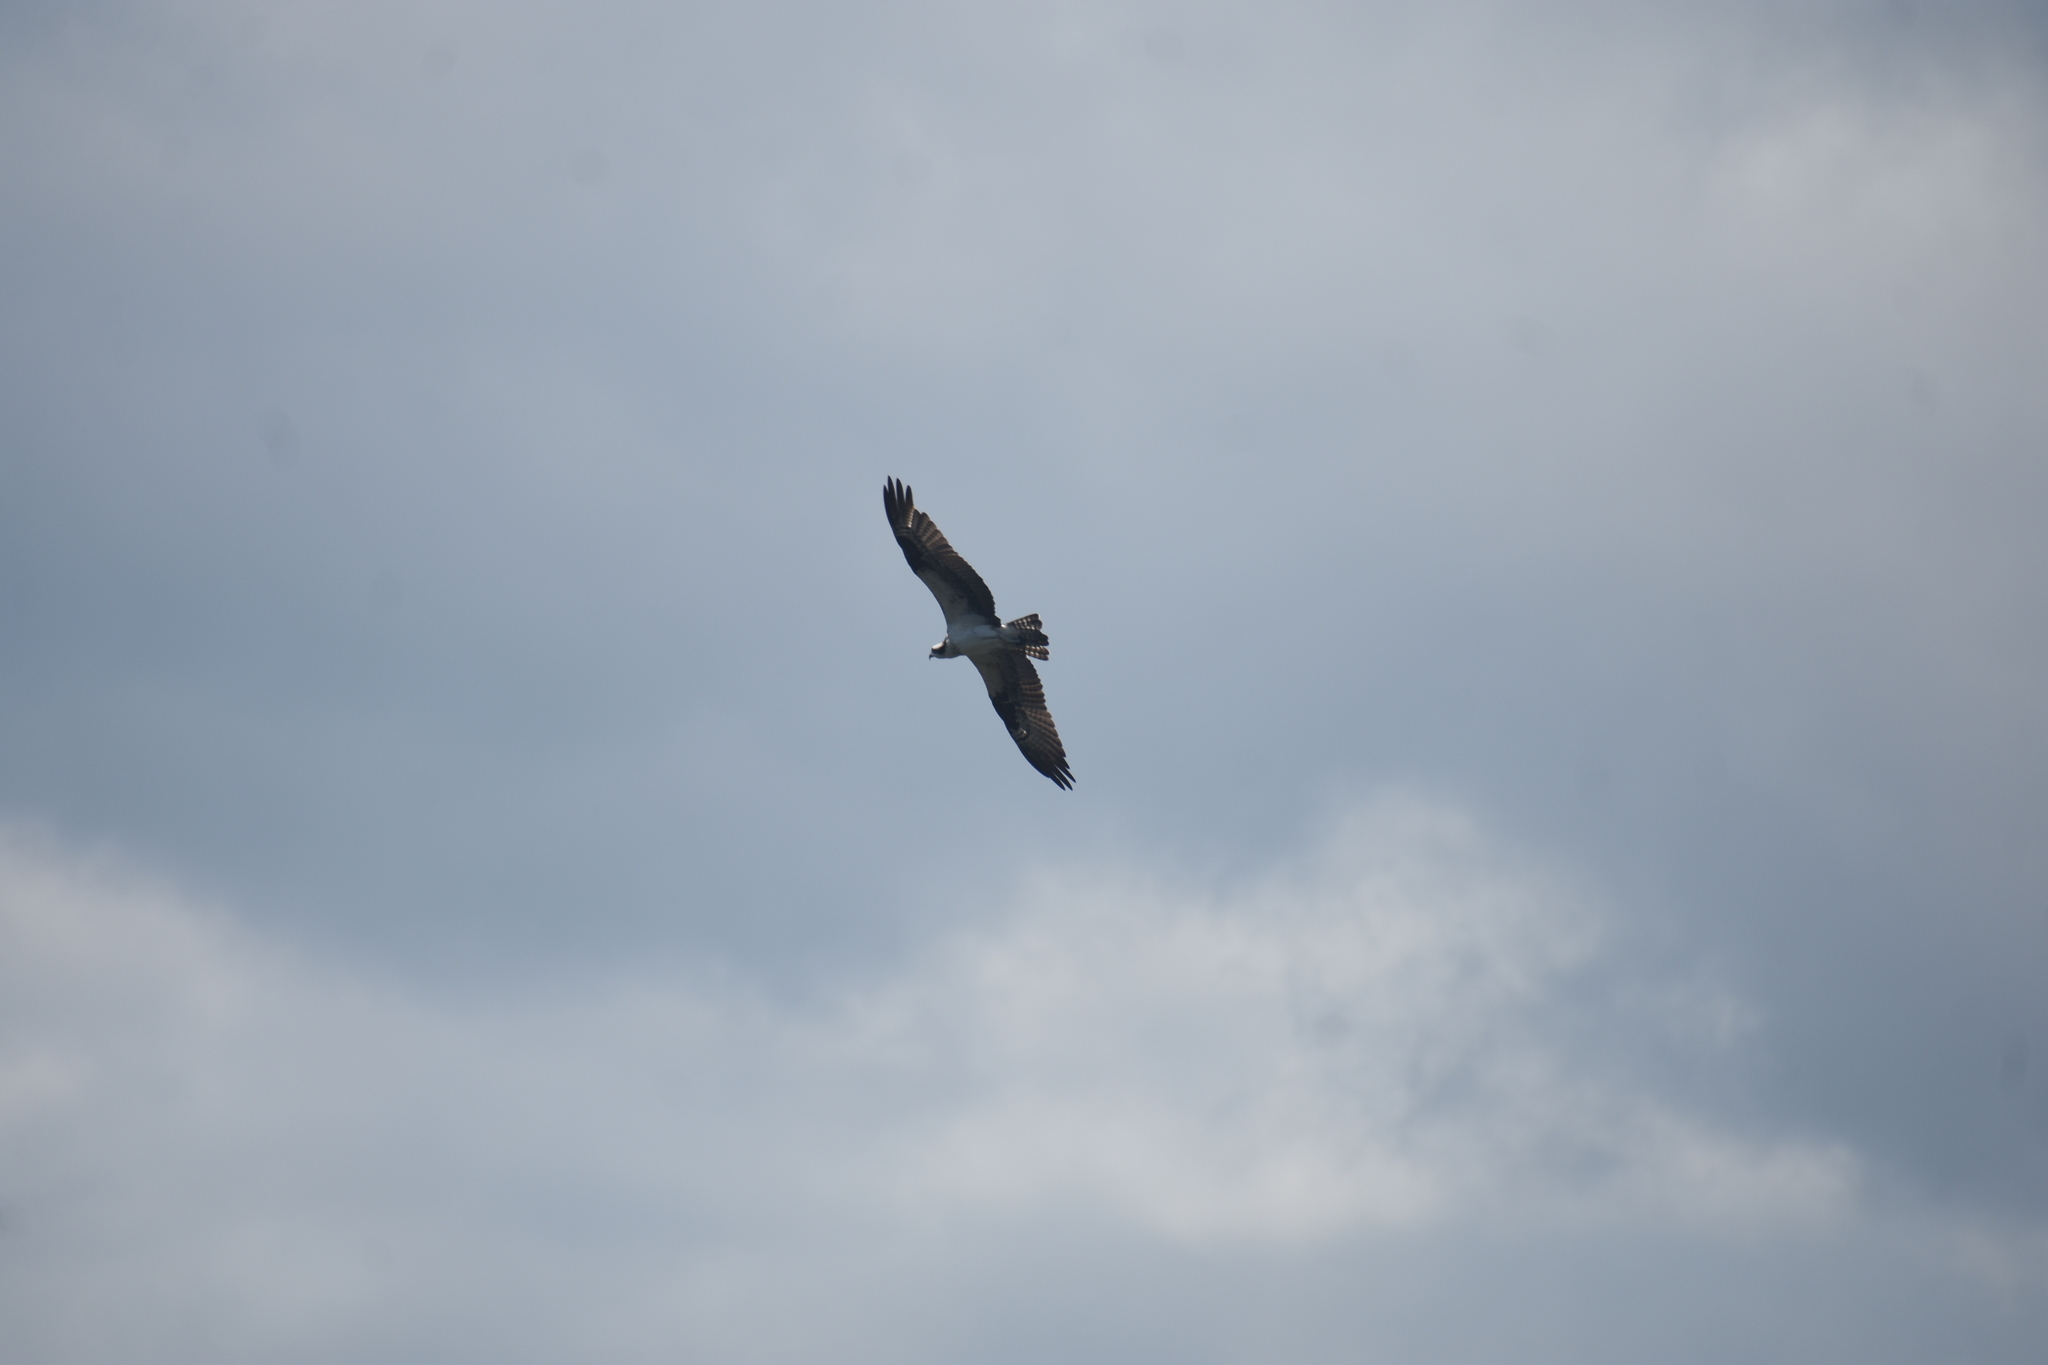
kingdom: Animalia
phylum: Chordata
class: Aves
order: Accipitriformes
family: Pandionidae
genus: Pandion
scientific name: Pandion haliaetus
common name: Osprey
